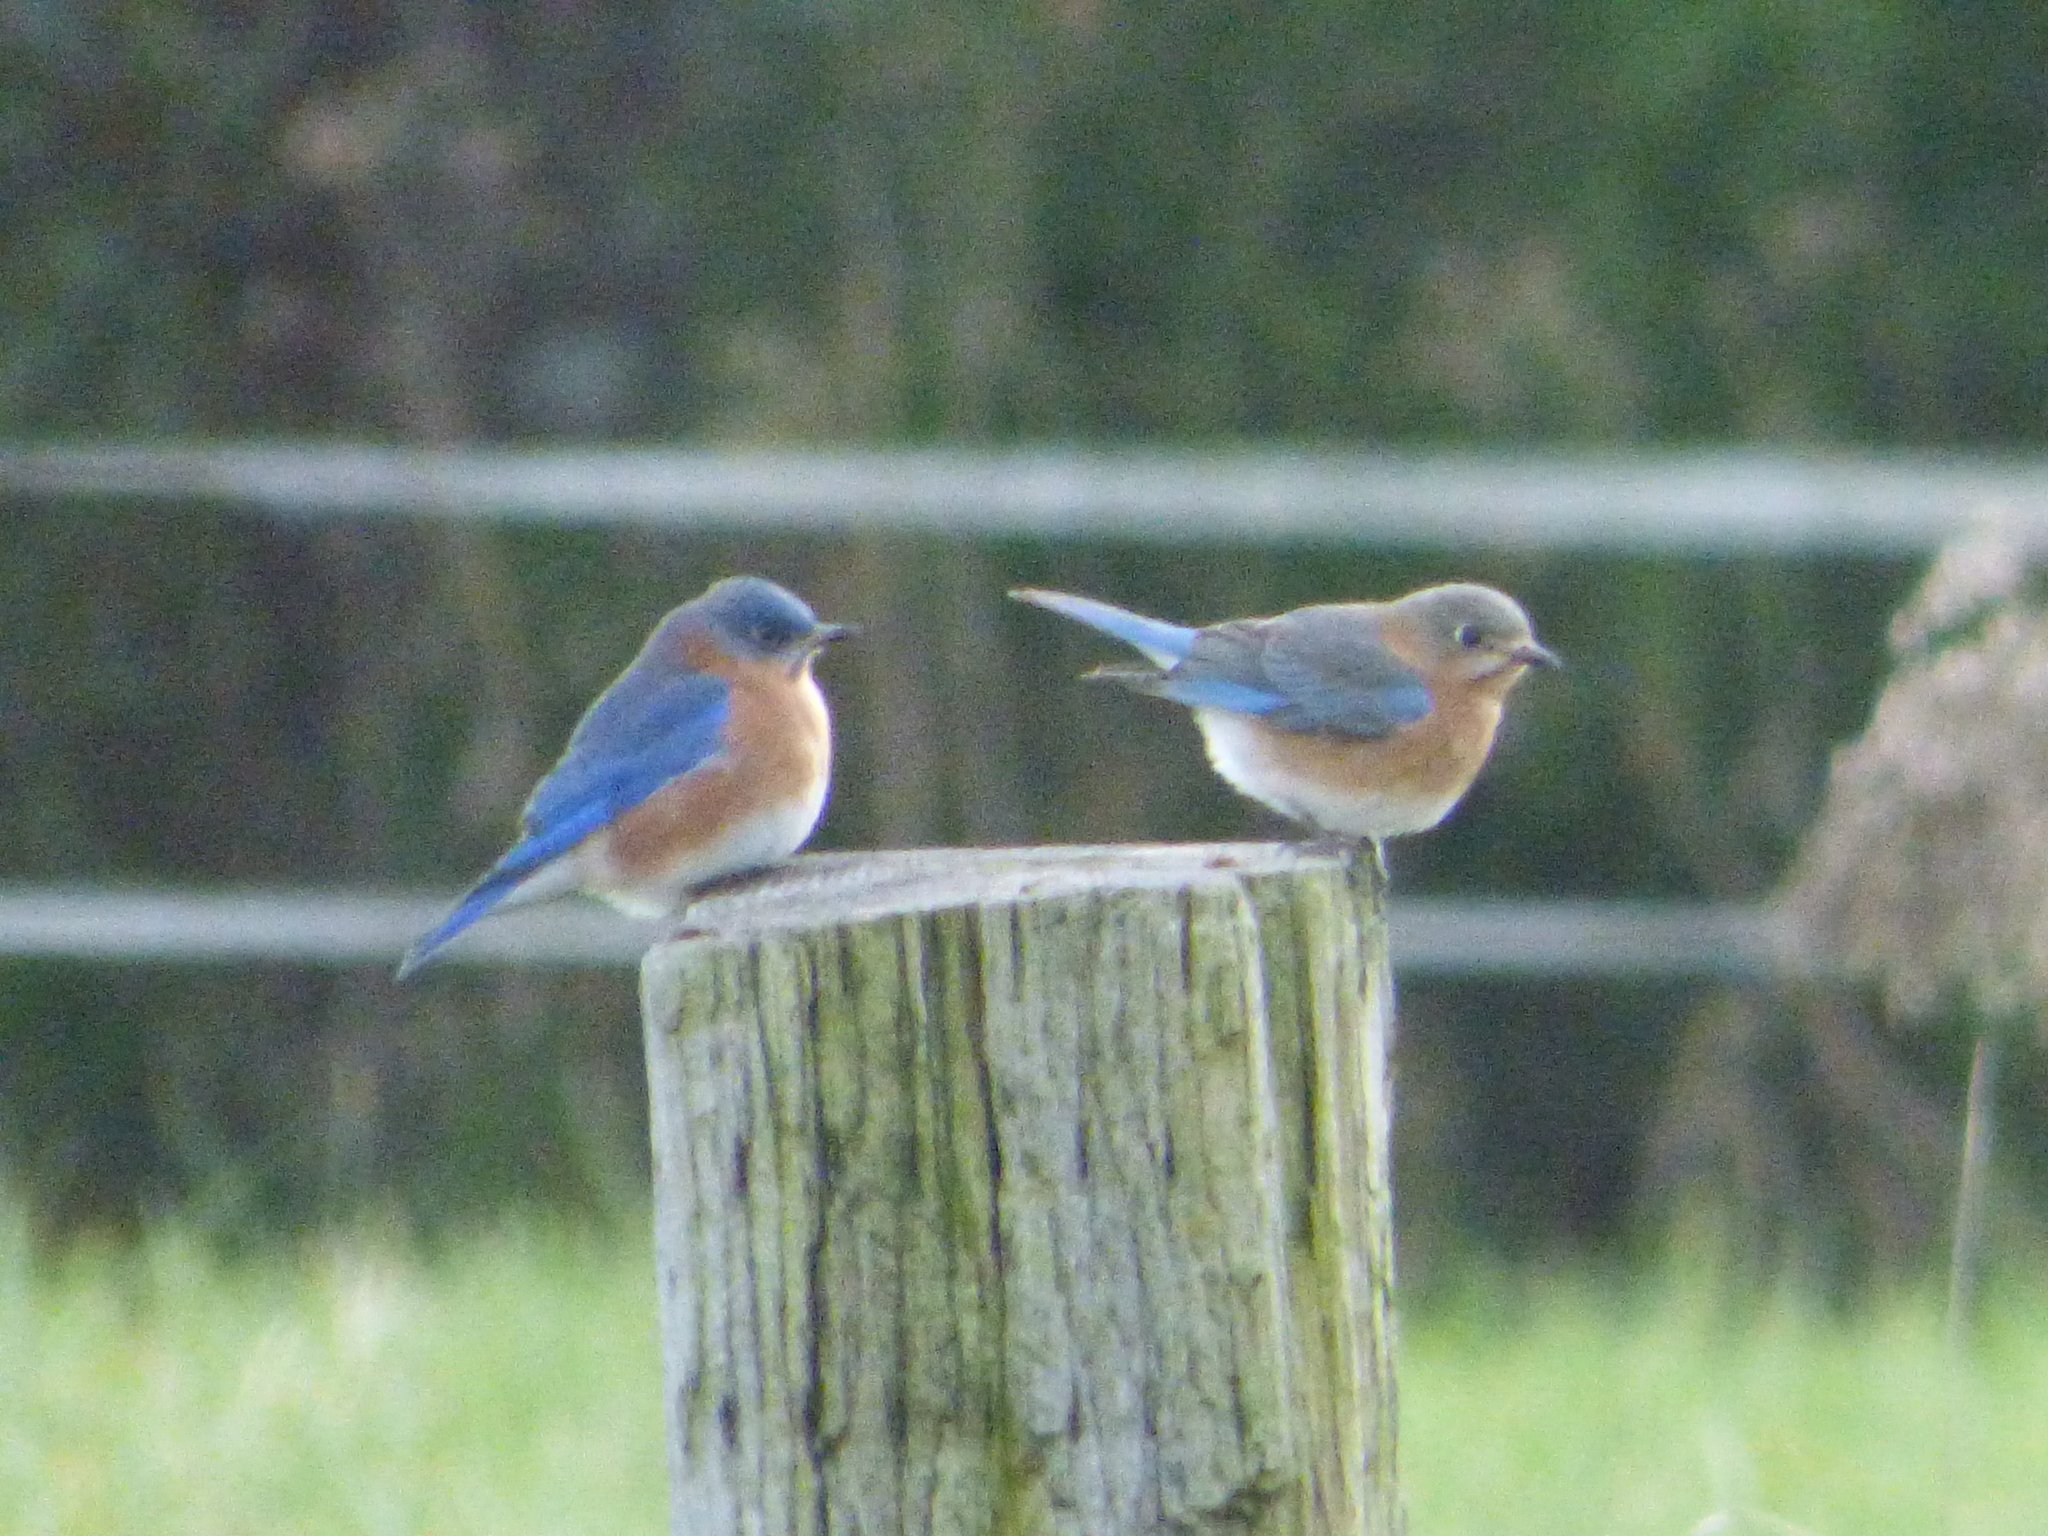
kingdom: Animalia
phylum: Chordata
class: Aves
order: Passeriformes
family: Turdidae
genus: Sialia
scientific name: Sialia sialis
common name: Eastern bluebird
